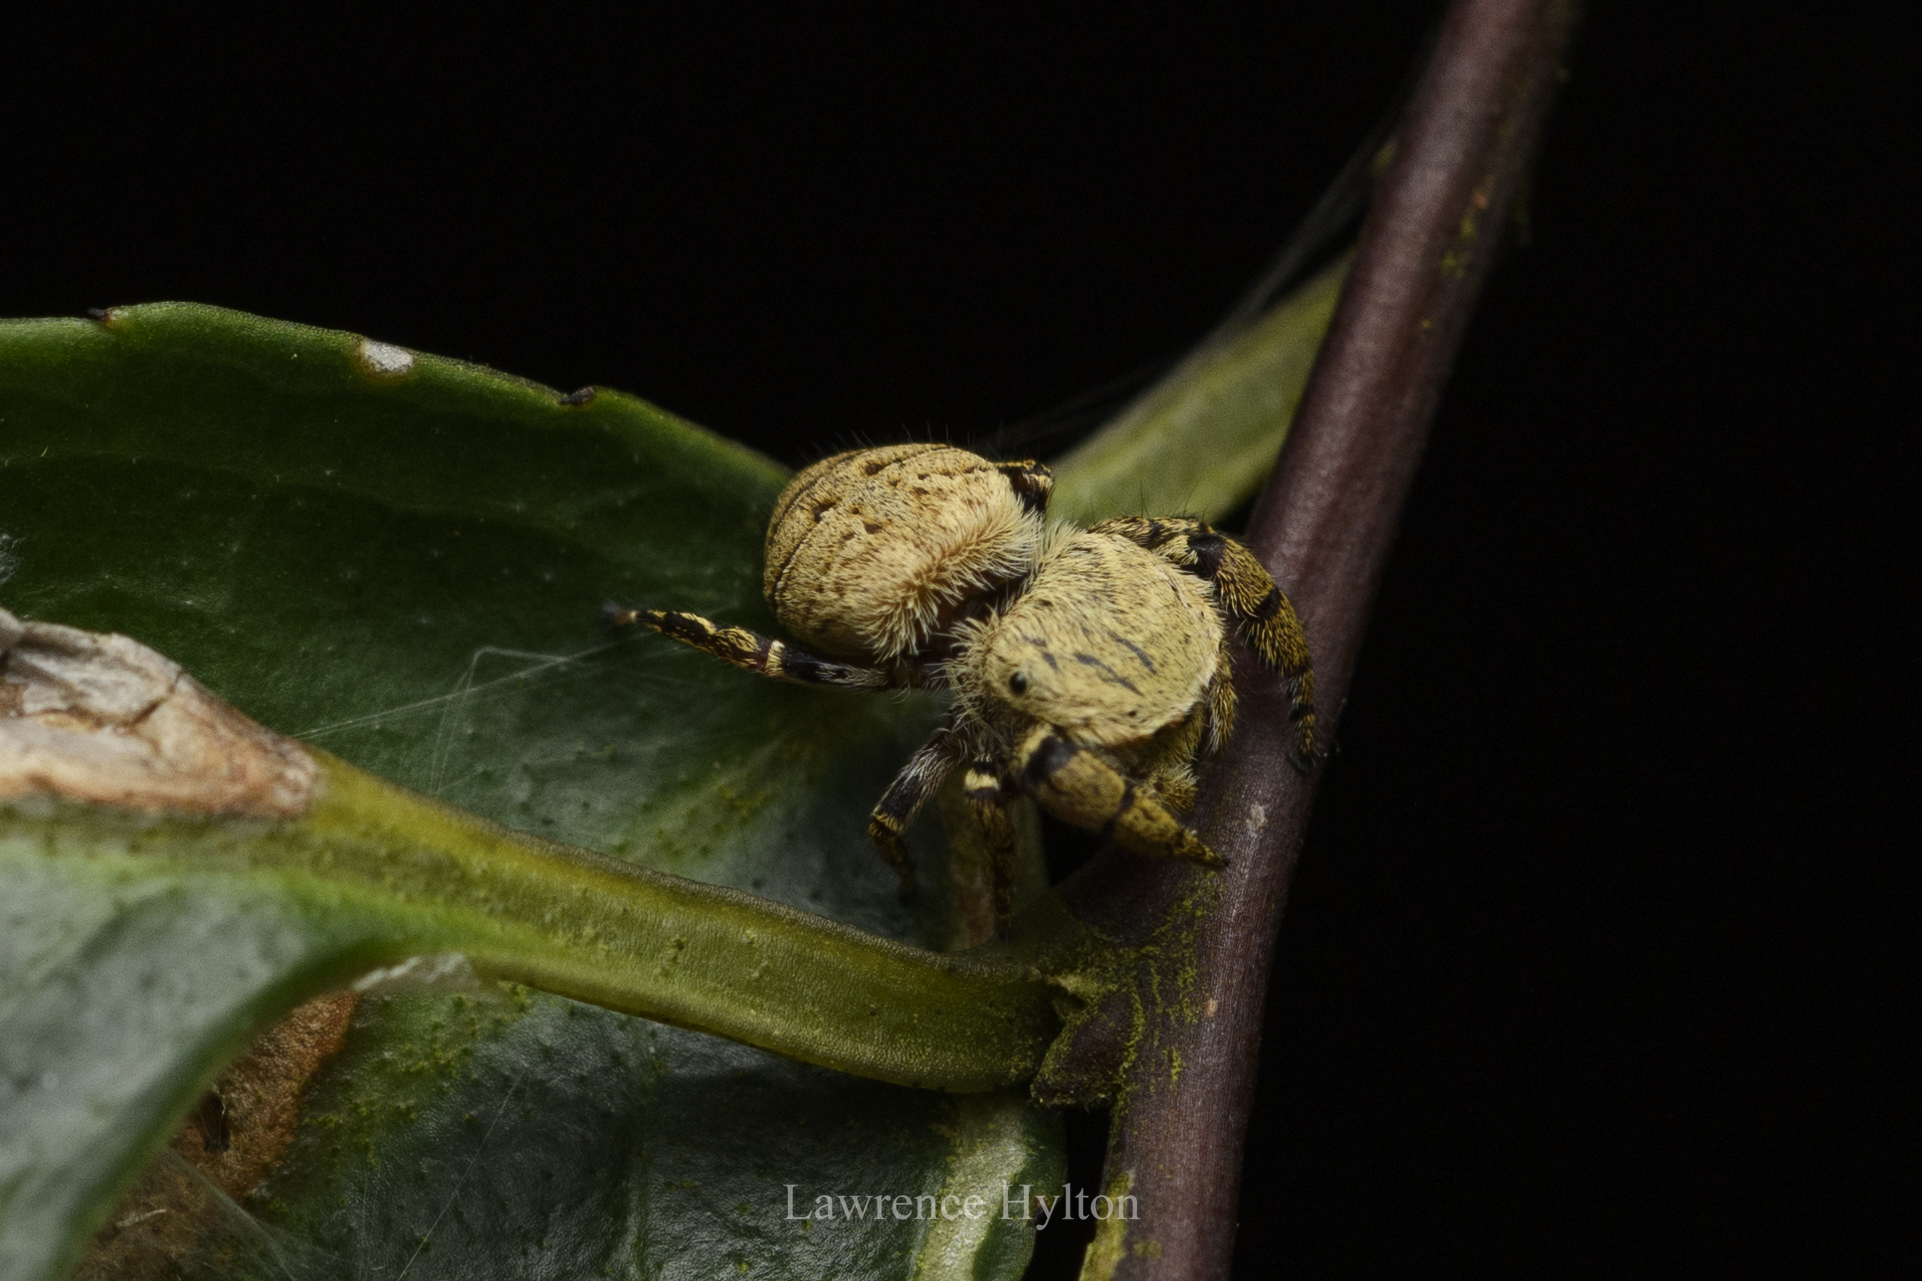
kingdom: Animalia
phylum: Arthropoda
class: Arachnida
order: Araneae
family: Salticidae
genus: Rhene
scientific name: Rhene flavicomans
